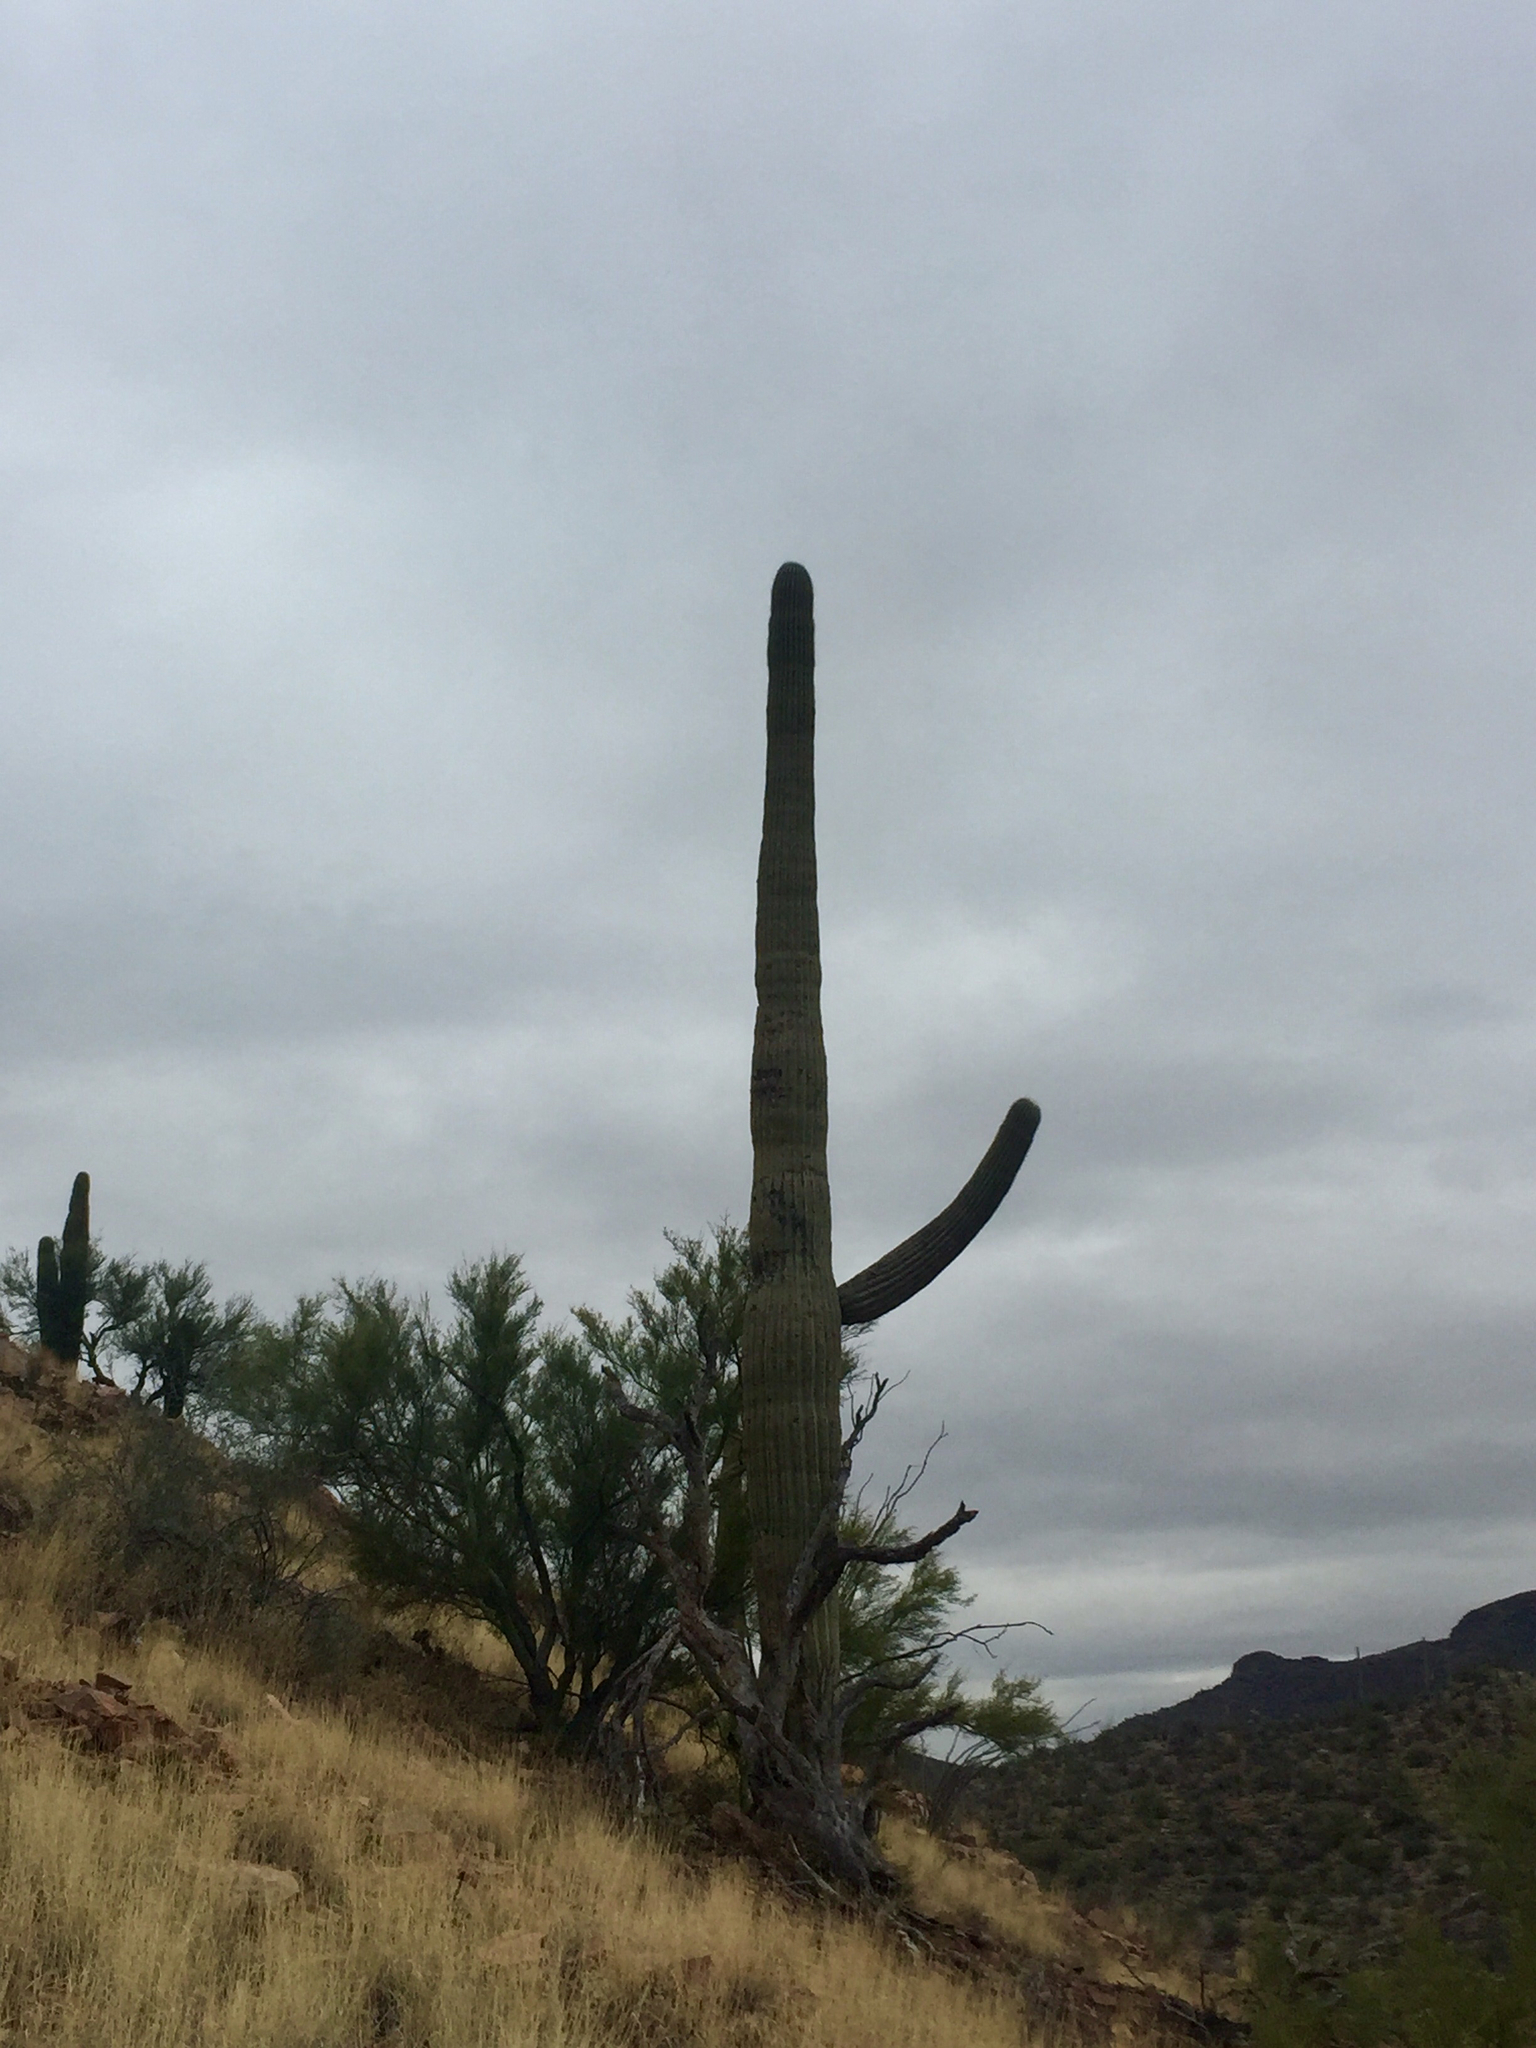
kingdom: Plantae
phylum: Tracheophyta
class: Magnoliopsida
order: Caryophyllales
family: Cactaceae
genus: Carnegiea
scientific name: Carnegiea gigantea
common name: Saguaro
